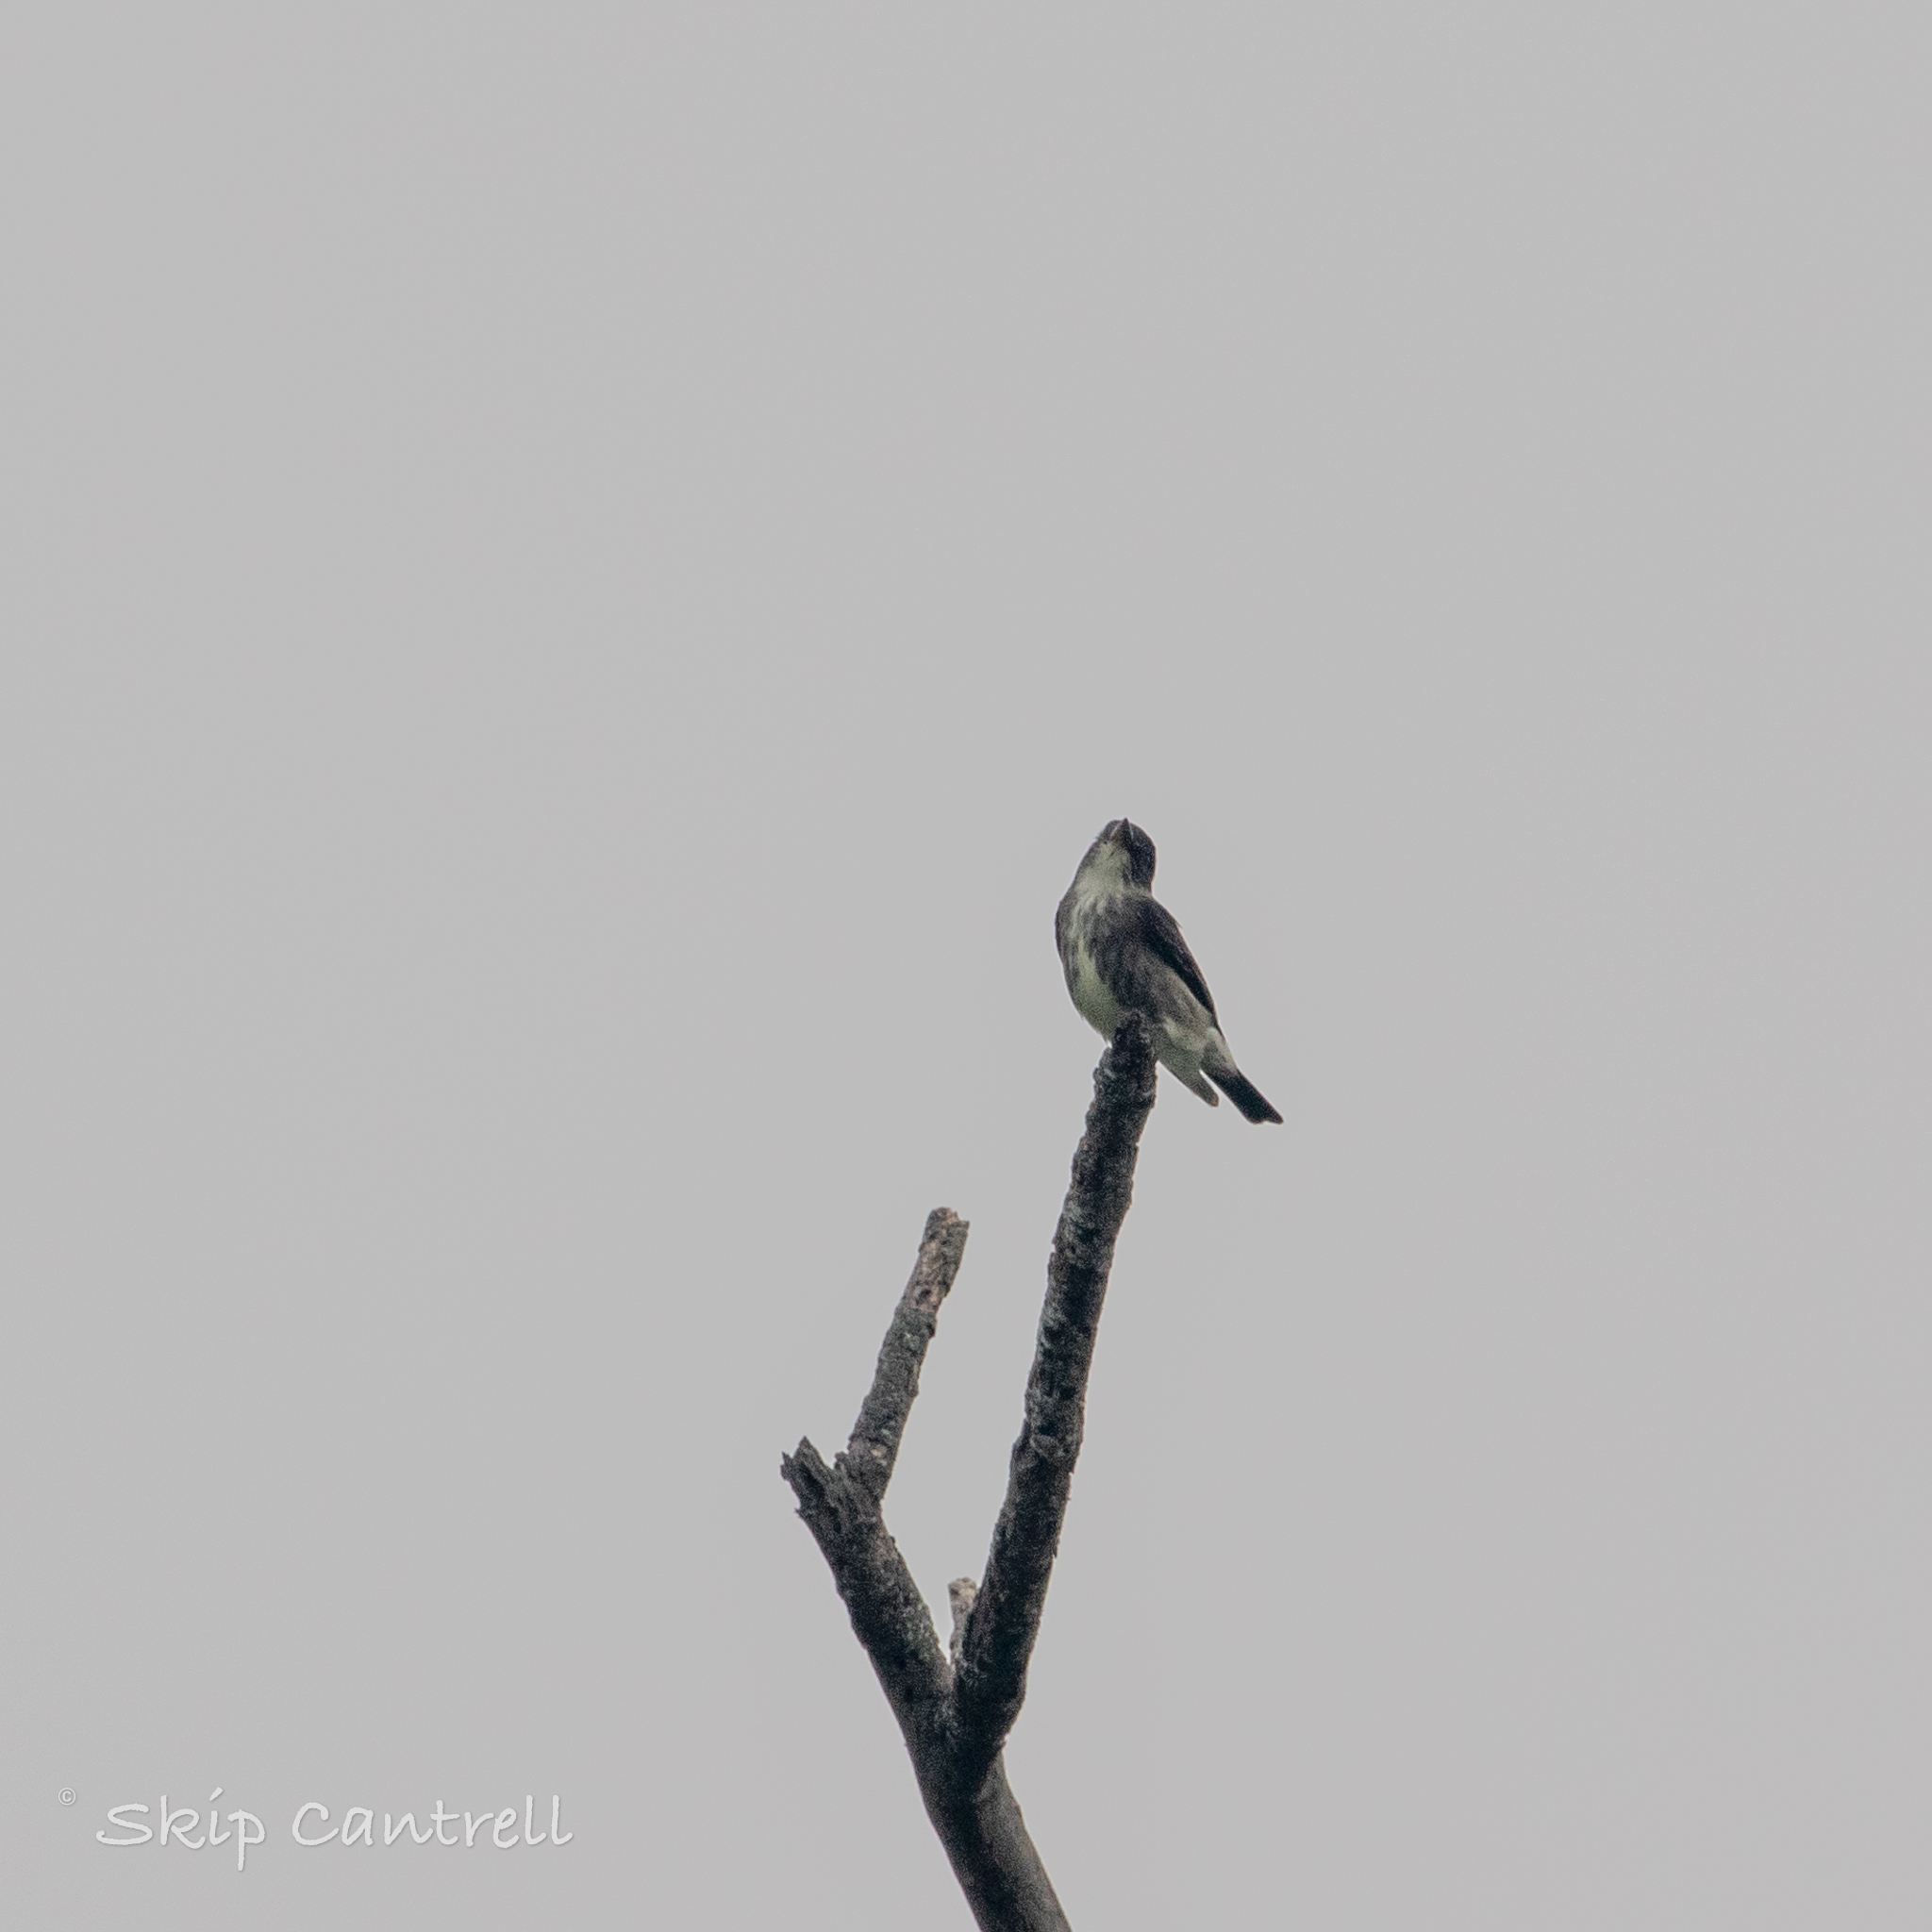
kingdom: Animalia
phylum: Chordata
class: Aves
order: Passeriformes
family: Tyrannidae
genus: Contopus
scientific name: Contopus cooperi
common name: Olive-sided flycatcher
